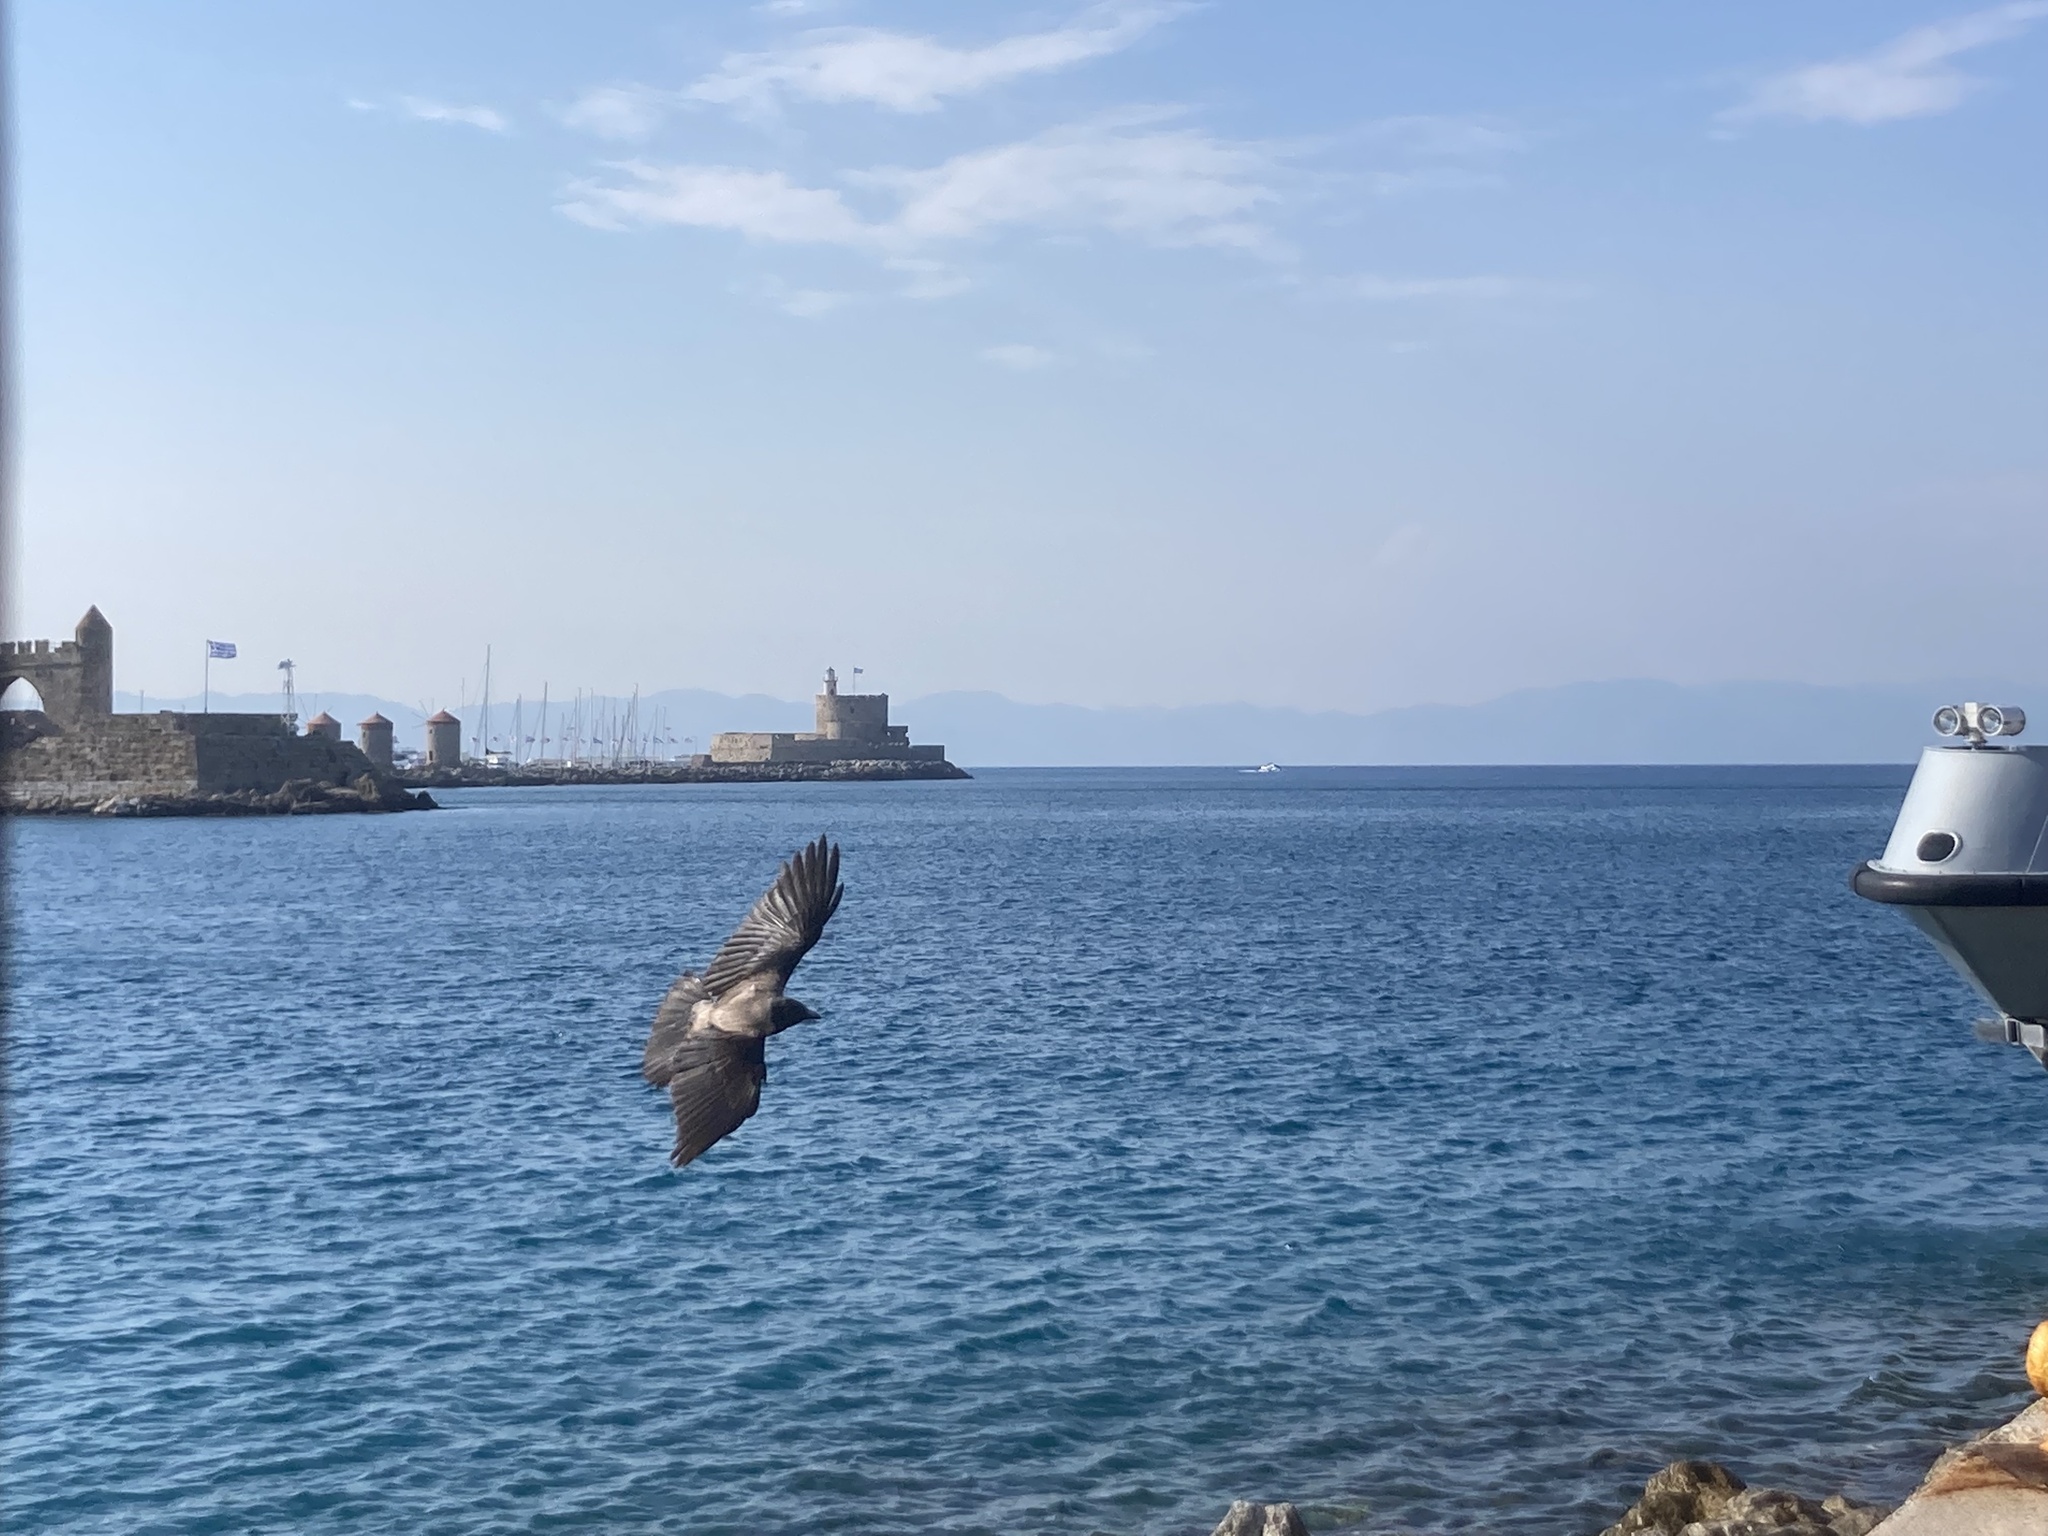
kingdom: Animalia
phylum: Chordata
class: Aves
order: Passeriformes
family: Corvidae
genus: Corvus
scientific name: Corvus cornix
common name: Hooded crow
